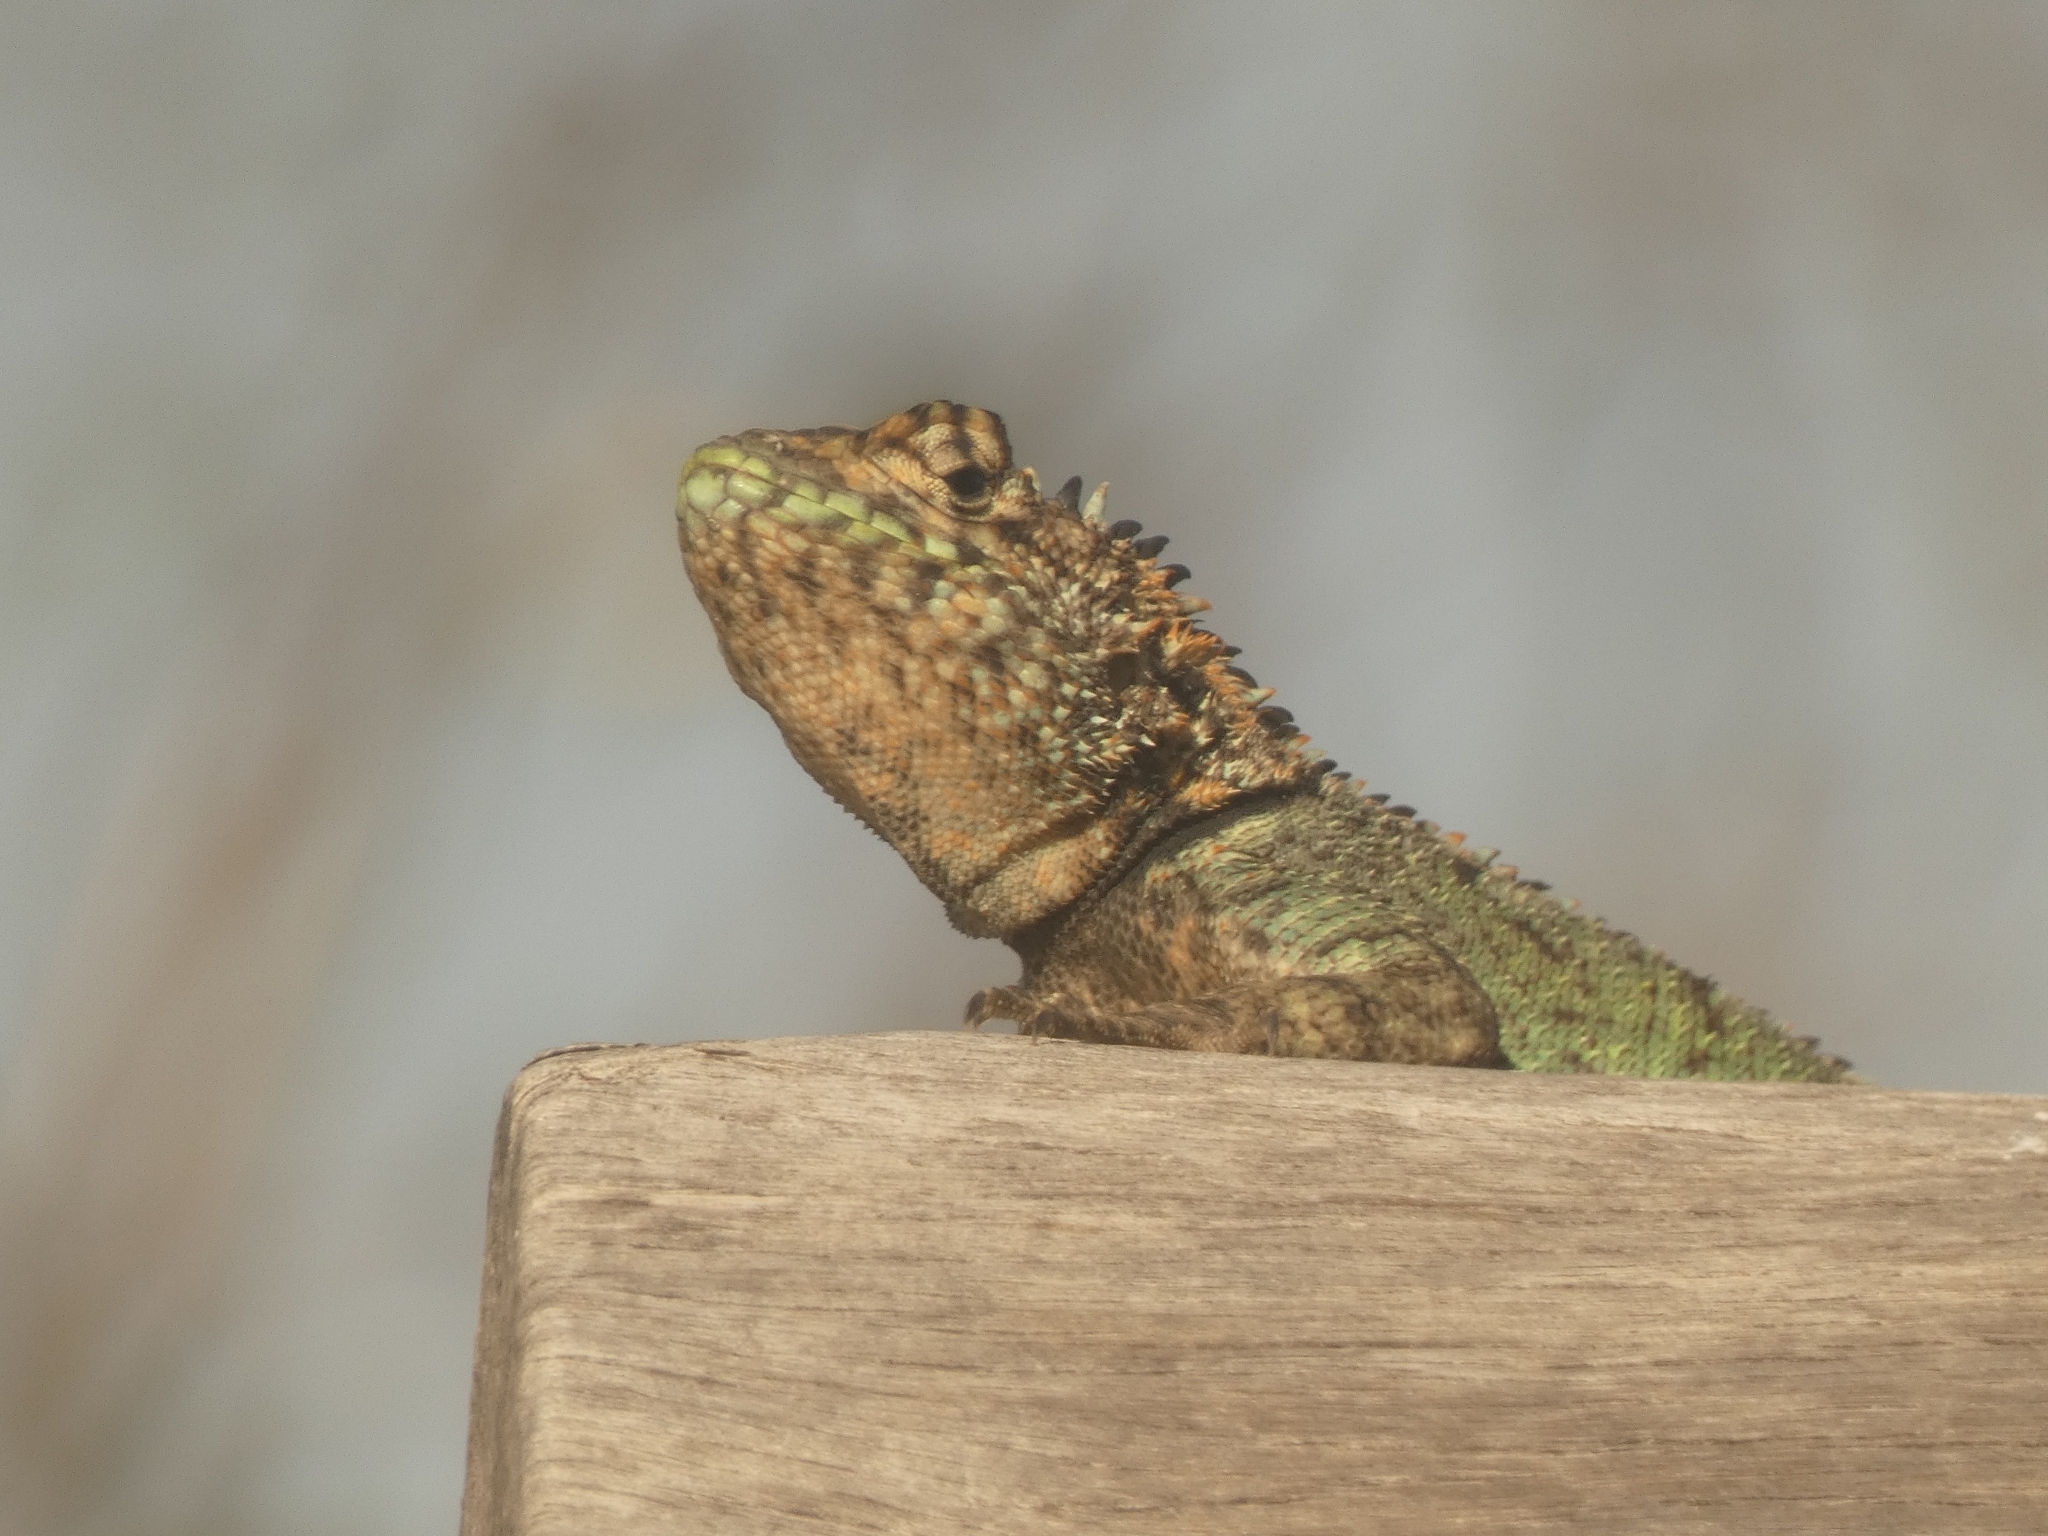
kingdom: Animalia
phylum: Chordata
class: Squamata
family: Tropiduridae
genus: Tropidurus
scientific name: Tropidurus spinulosus
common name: Spiny lava lizard
